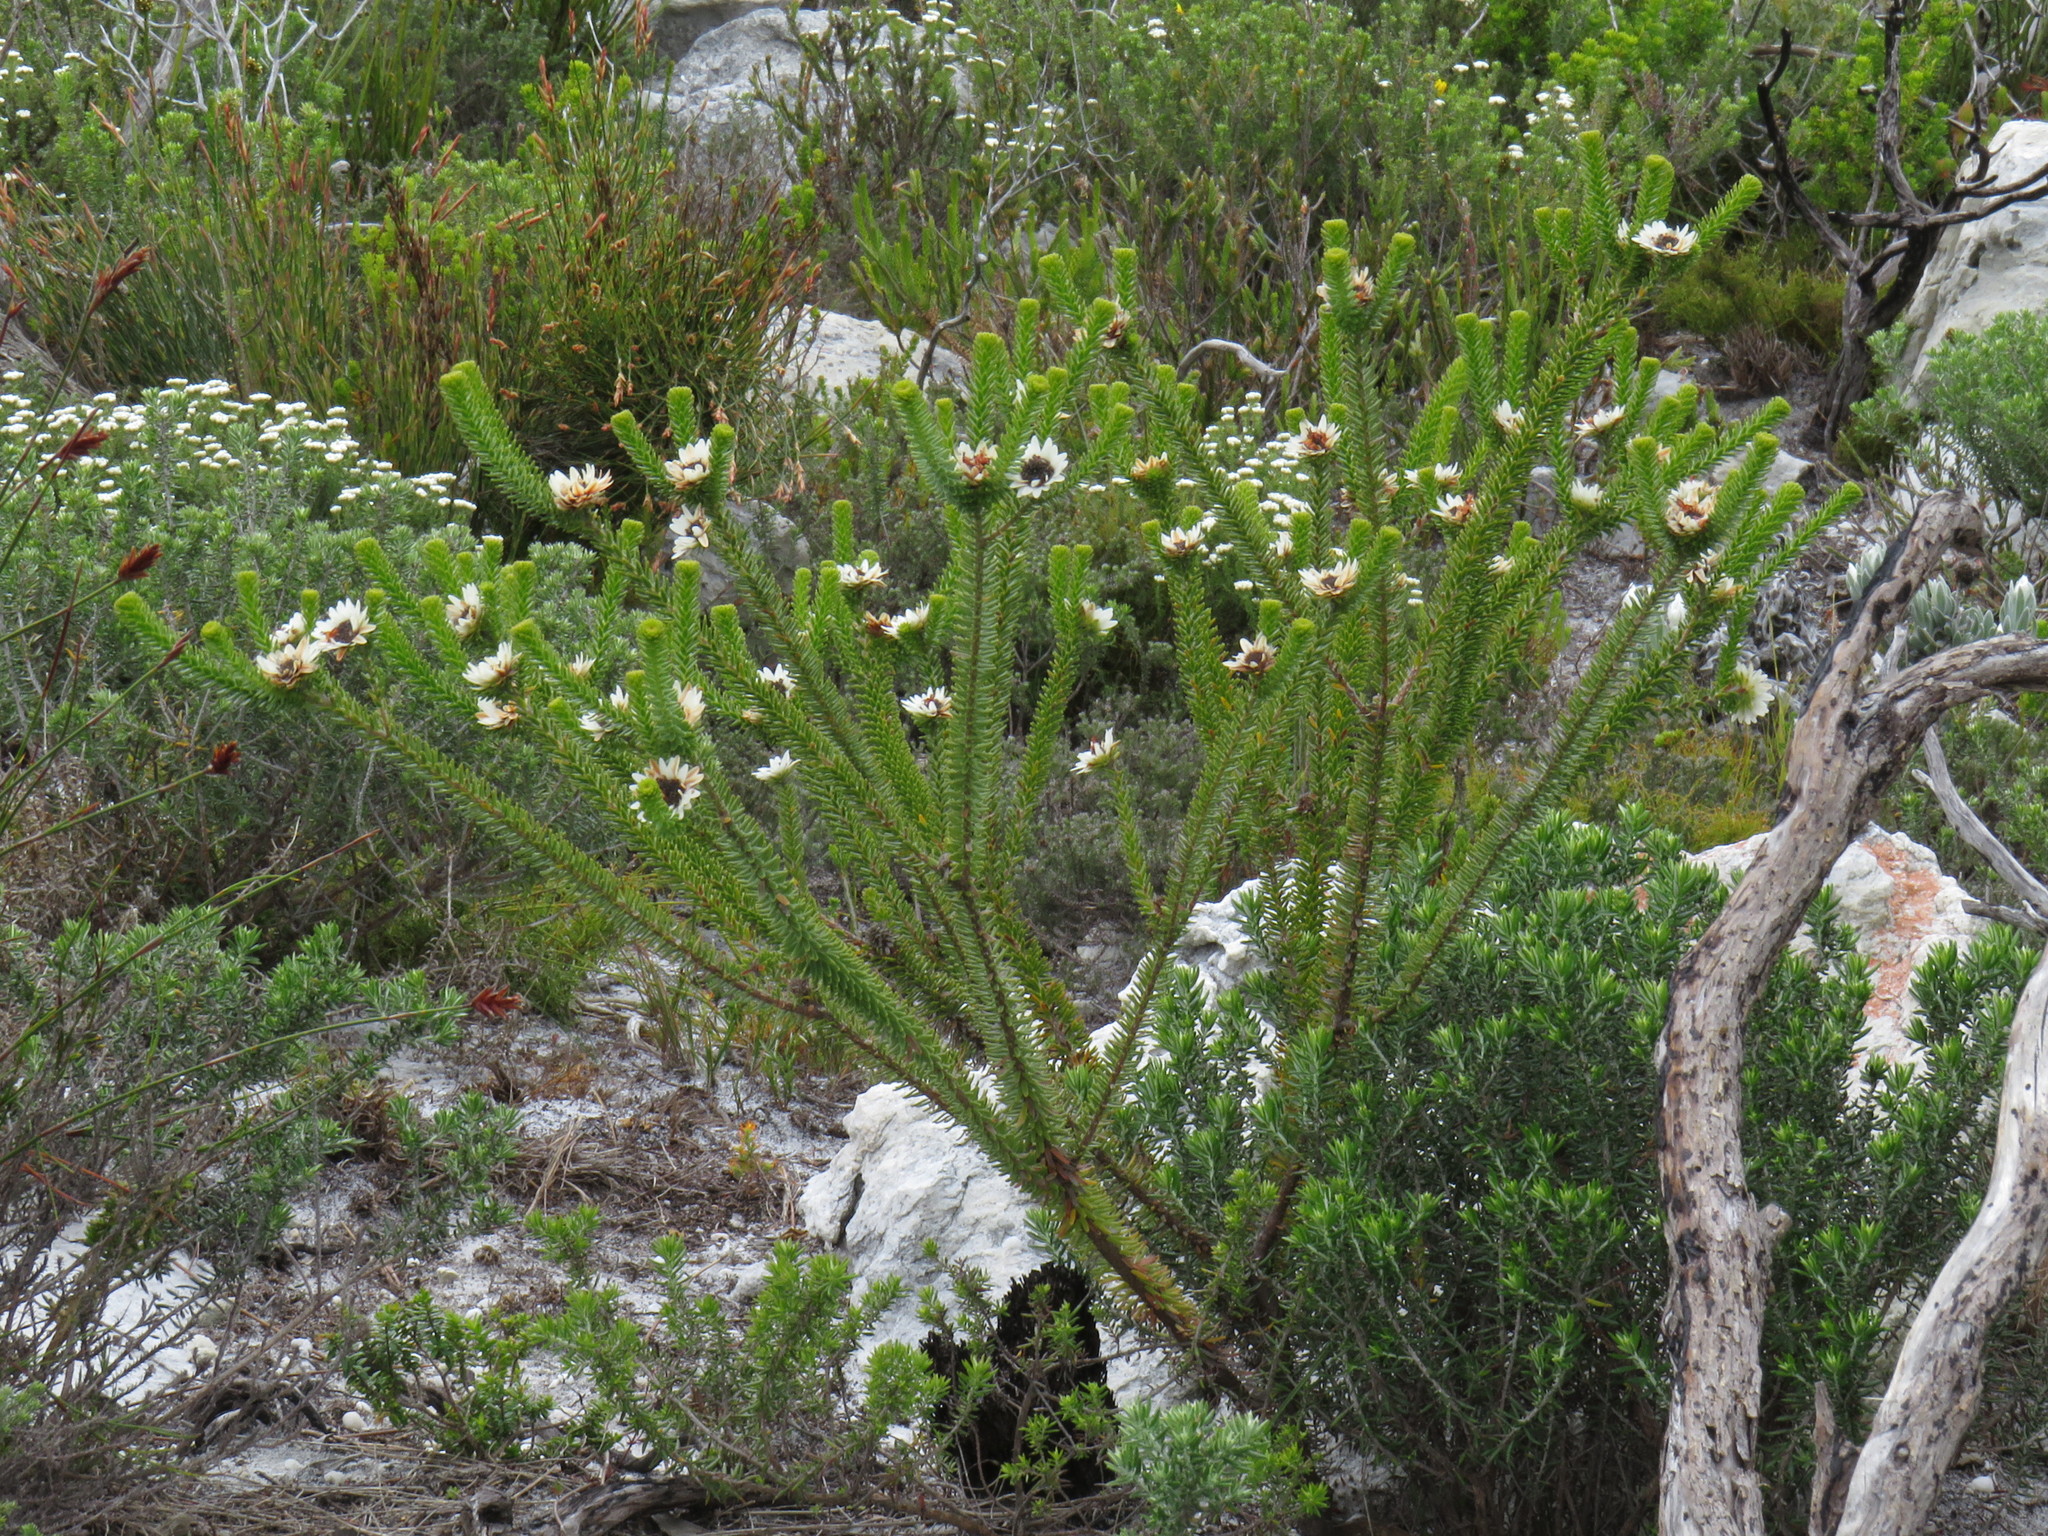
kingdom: Plantae
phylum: Tracheophyta
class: Magnoliopsida
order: Bruniales
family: Bruniaceae
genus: Staavia
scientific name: Staavia dodii
